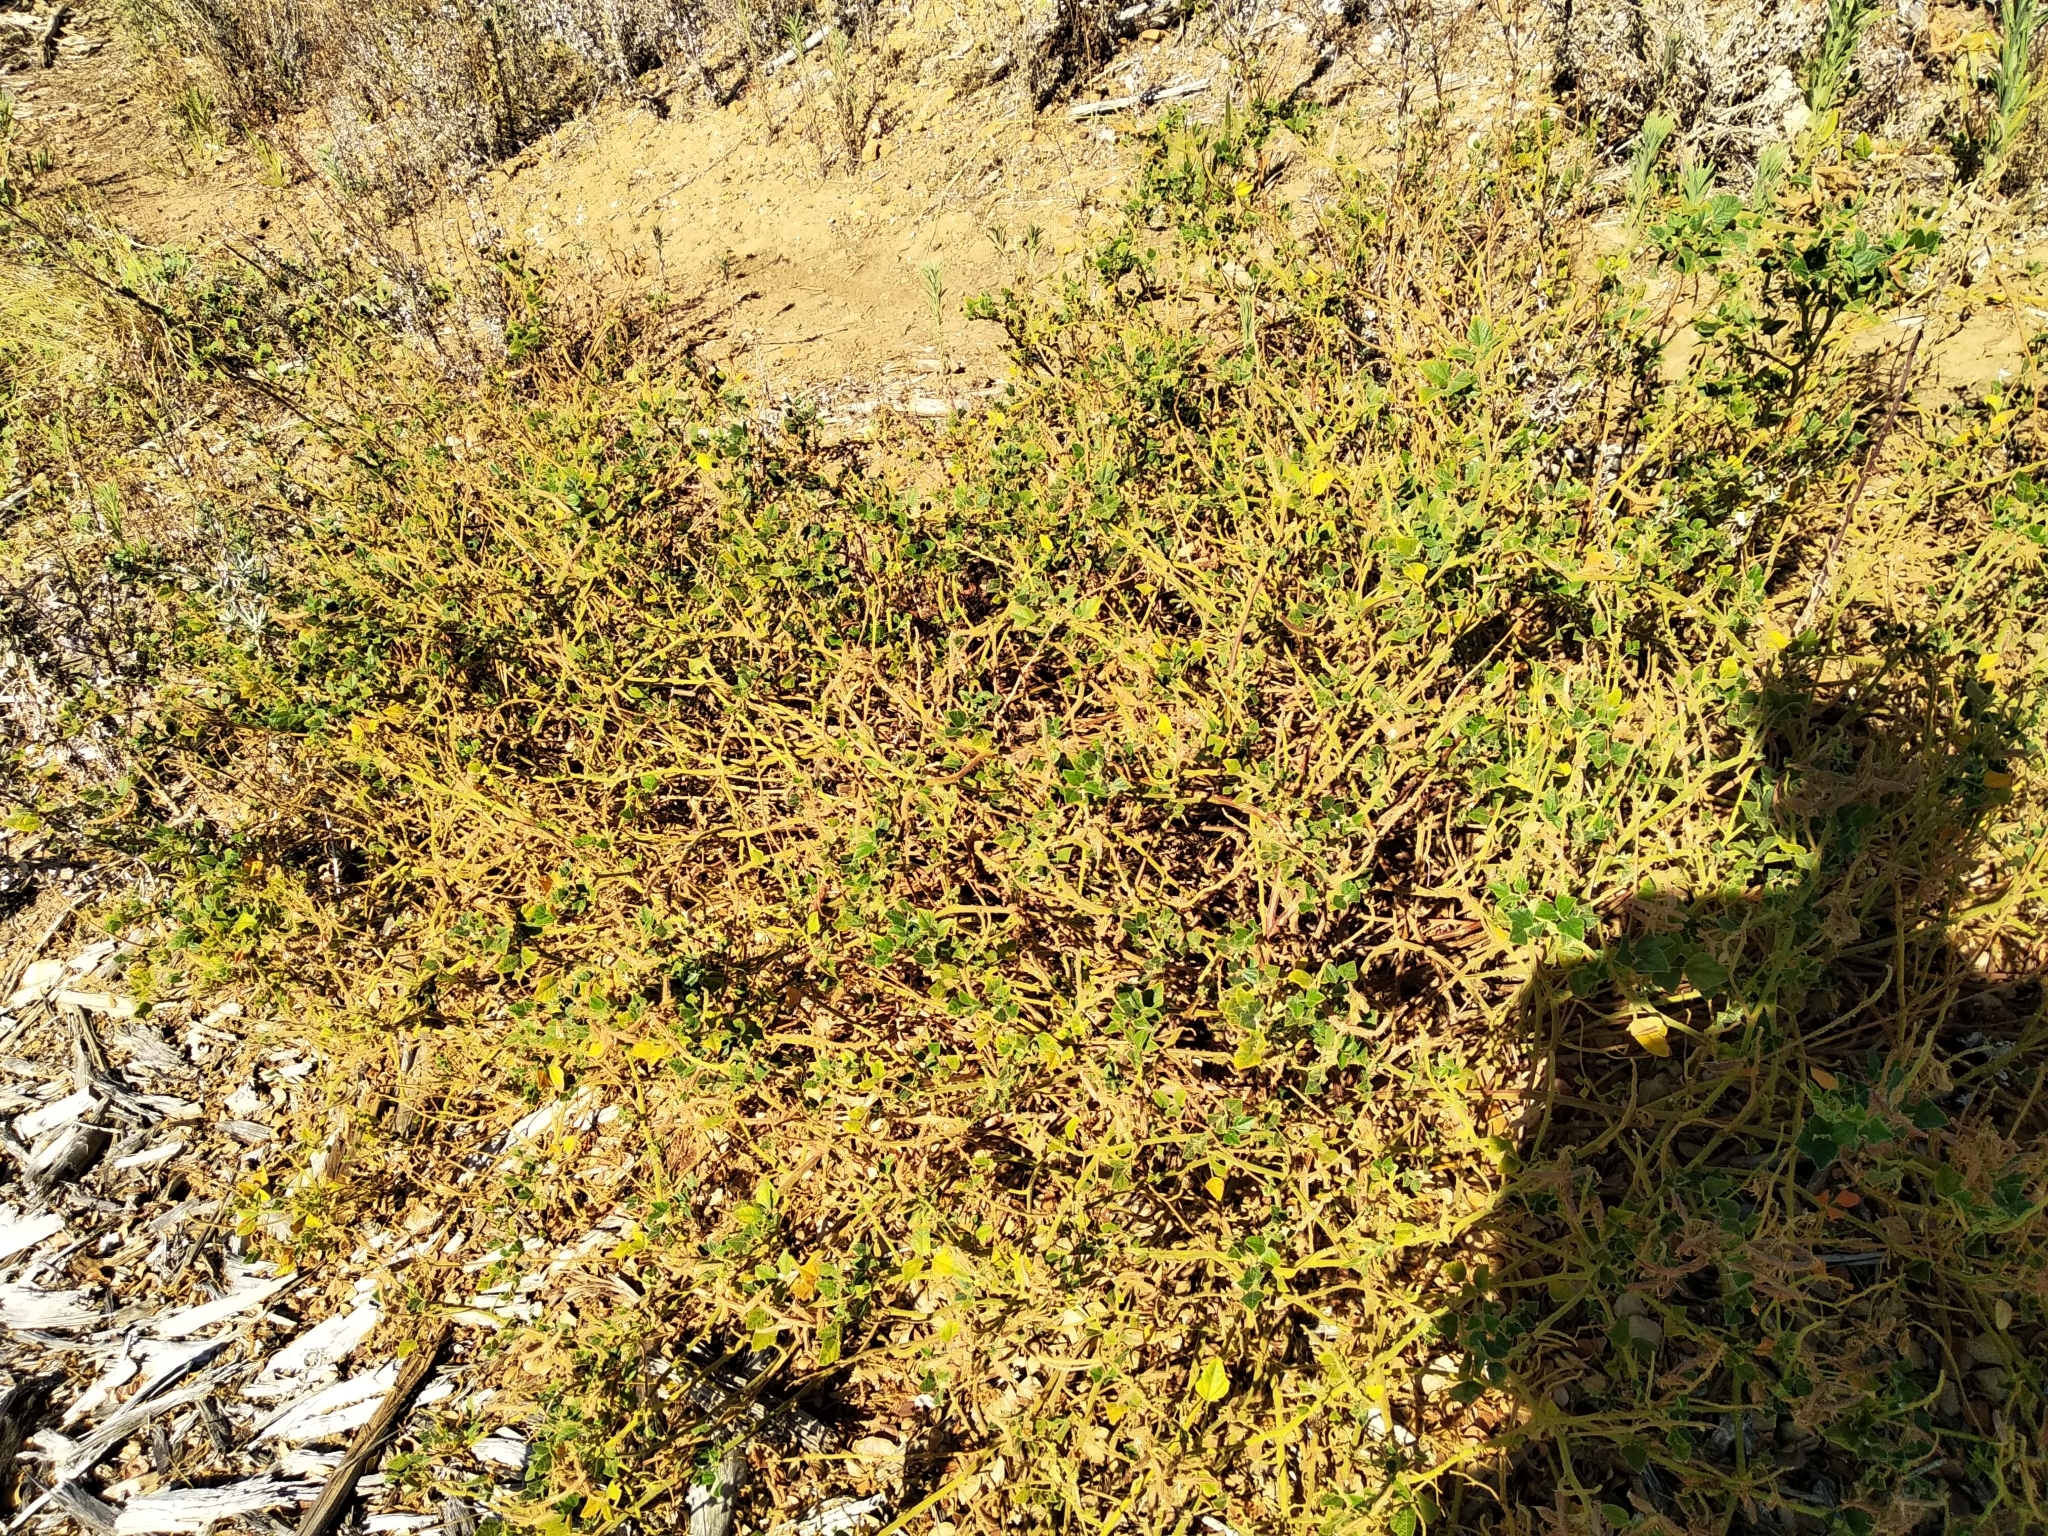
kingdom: Plantae
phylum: Tracheophyta
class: Magnoliopsida
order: Fabales
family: Fabaceae
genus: Bolusafra
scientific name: Bolusafra bituminosa
